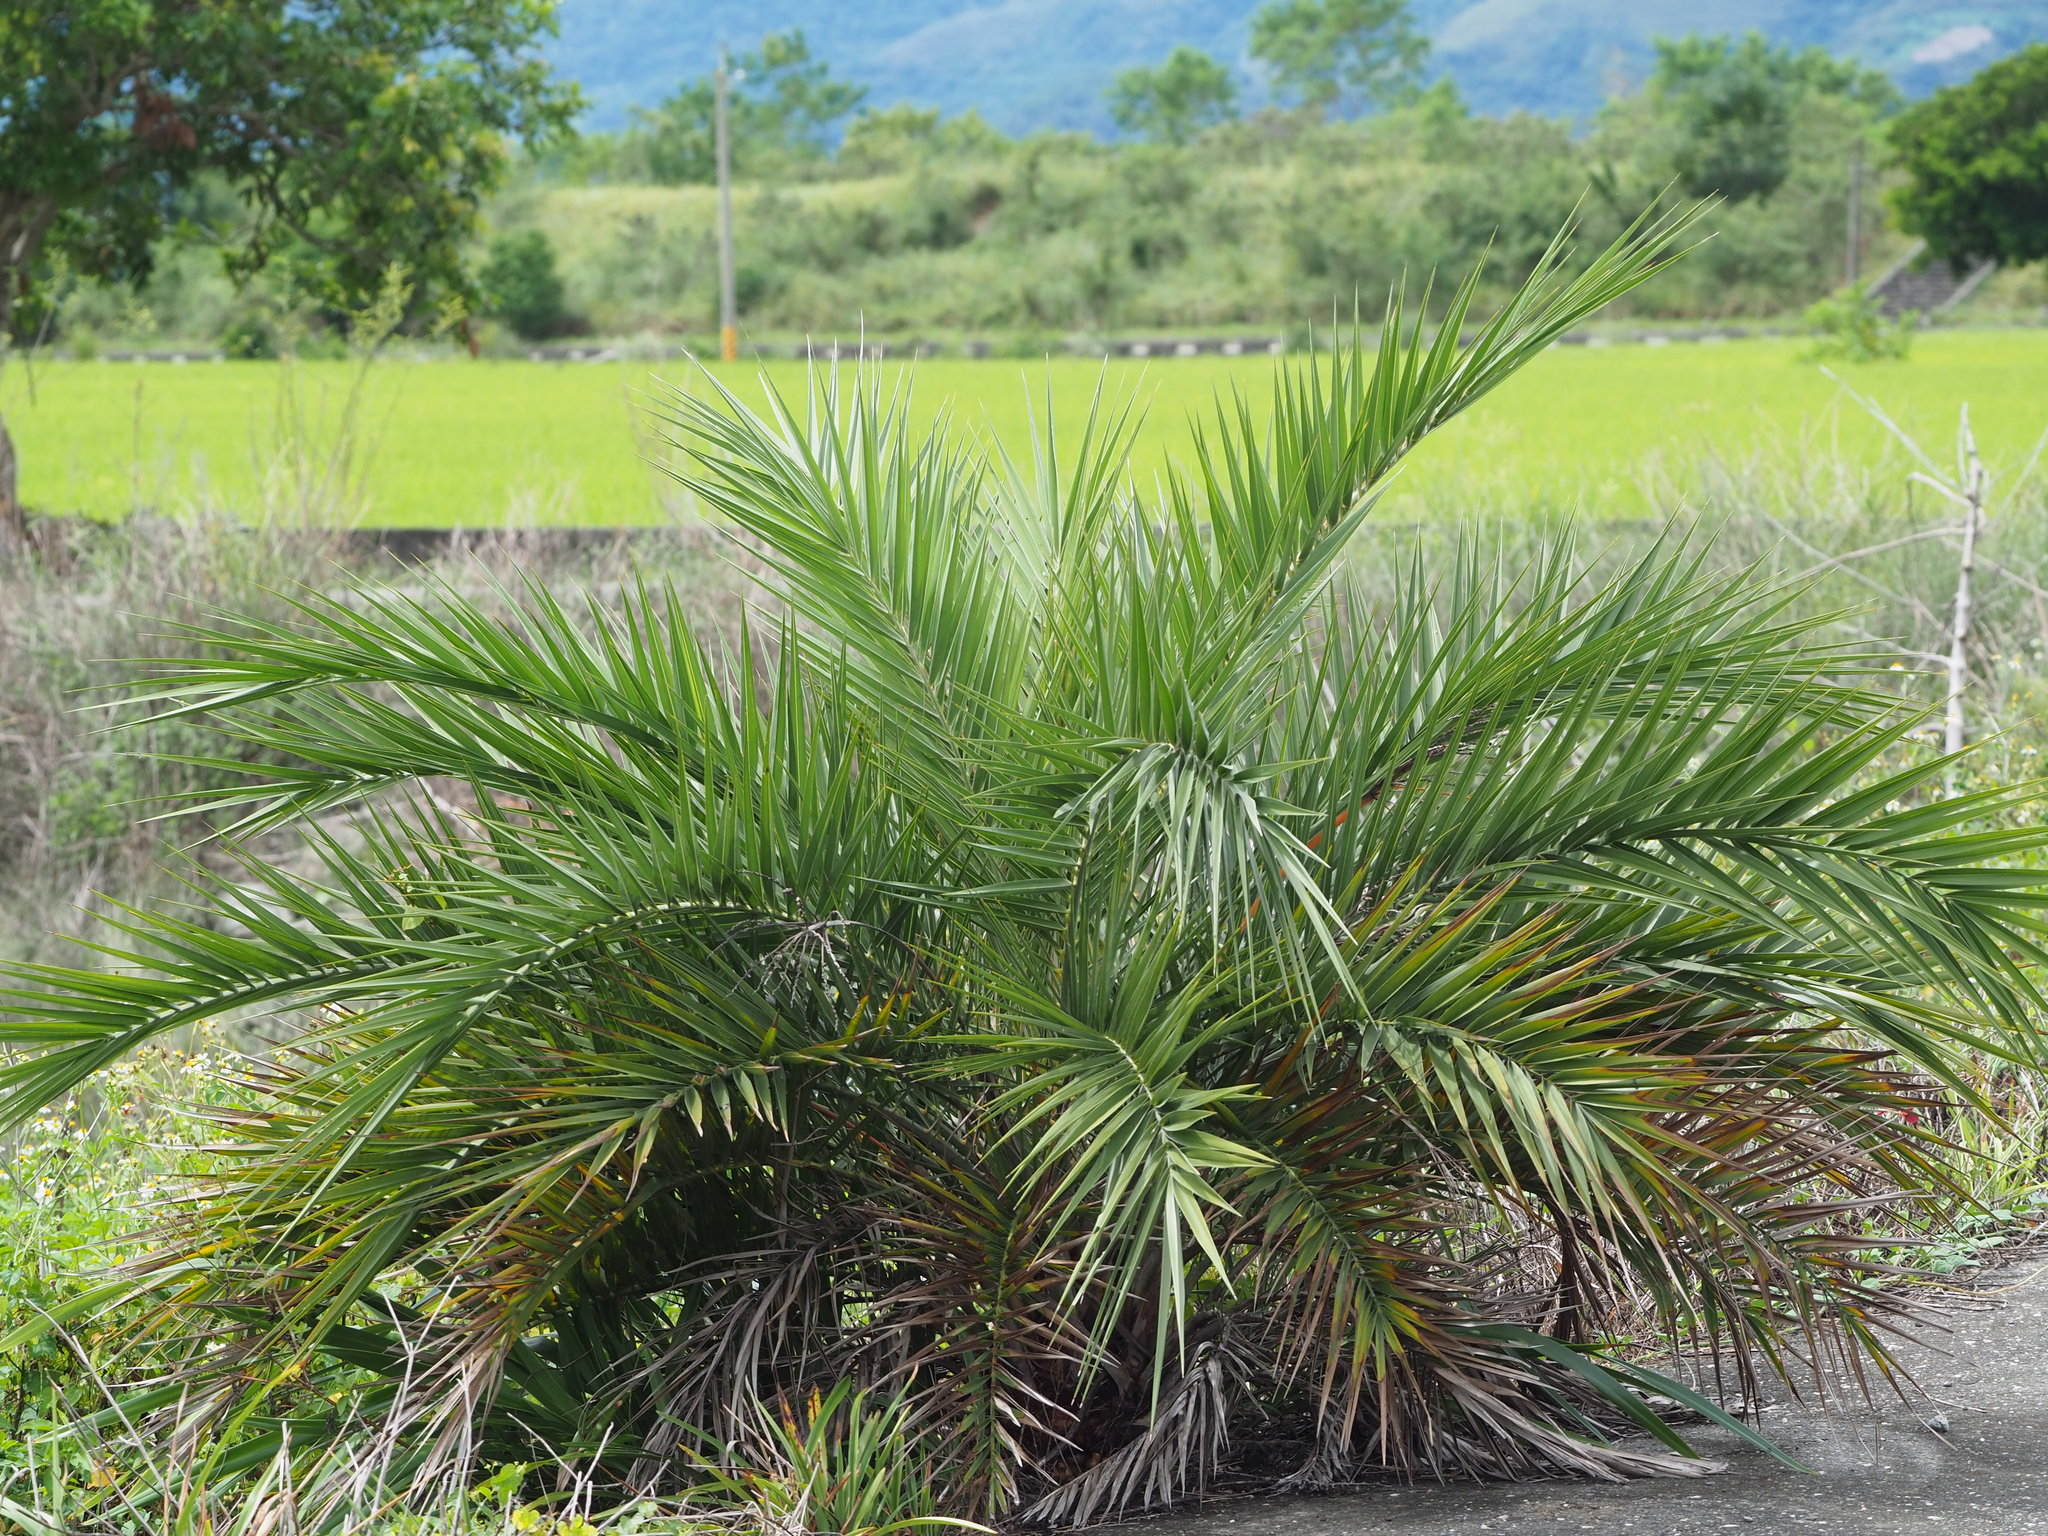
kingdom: Plantae
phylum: Tracheophyta
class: Liliopsida
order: Arecales
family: Arecaceae
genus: Phoenix
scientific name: Phoenix loureiroi
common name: Loureiro's palm
